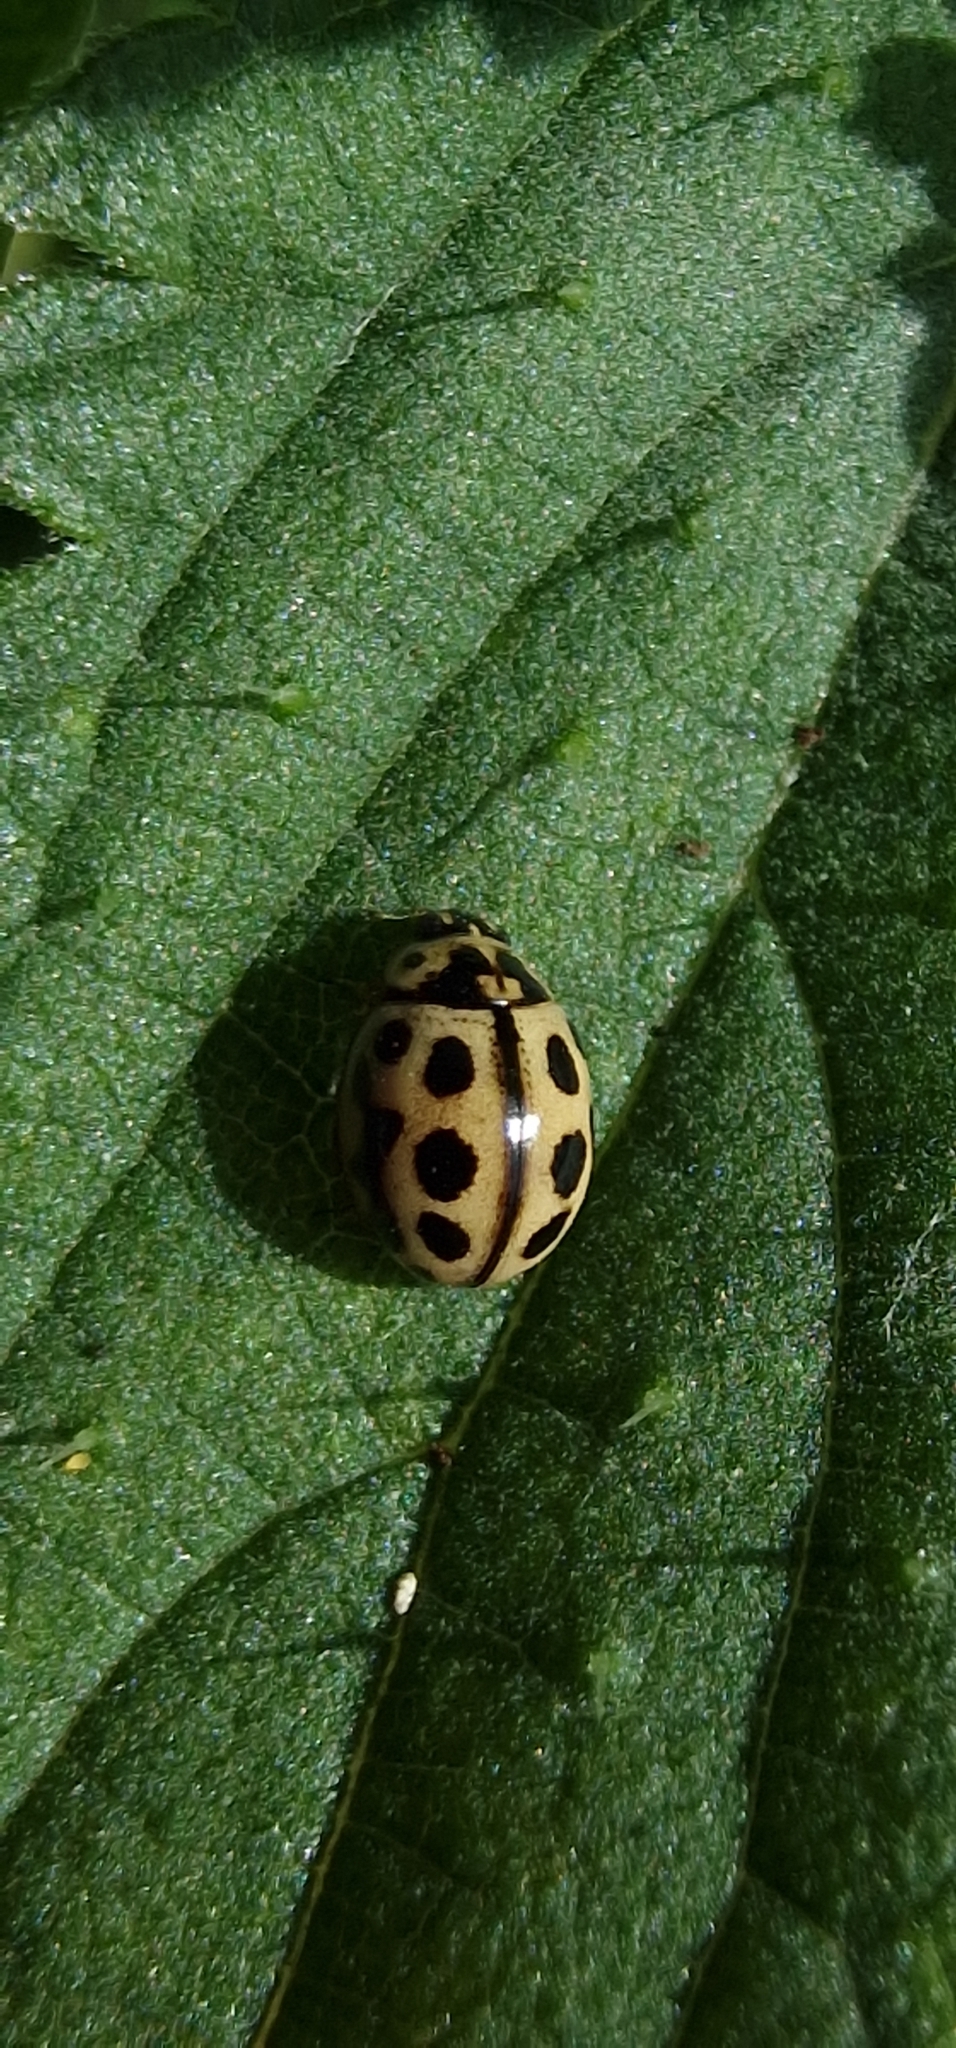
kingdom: Animalia
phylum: Arthropoda
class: Insecta
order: Coleoptera
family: Coccinellidae
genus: Tytthaspis
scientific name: Tytthaspis sedecimpunctata
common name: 16-spot ladybird
